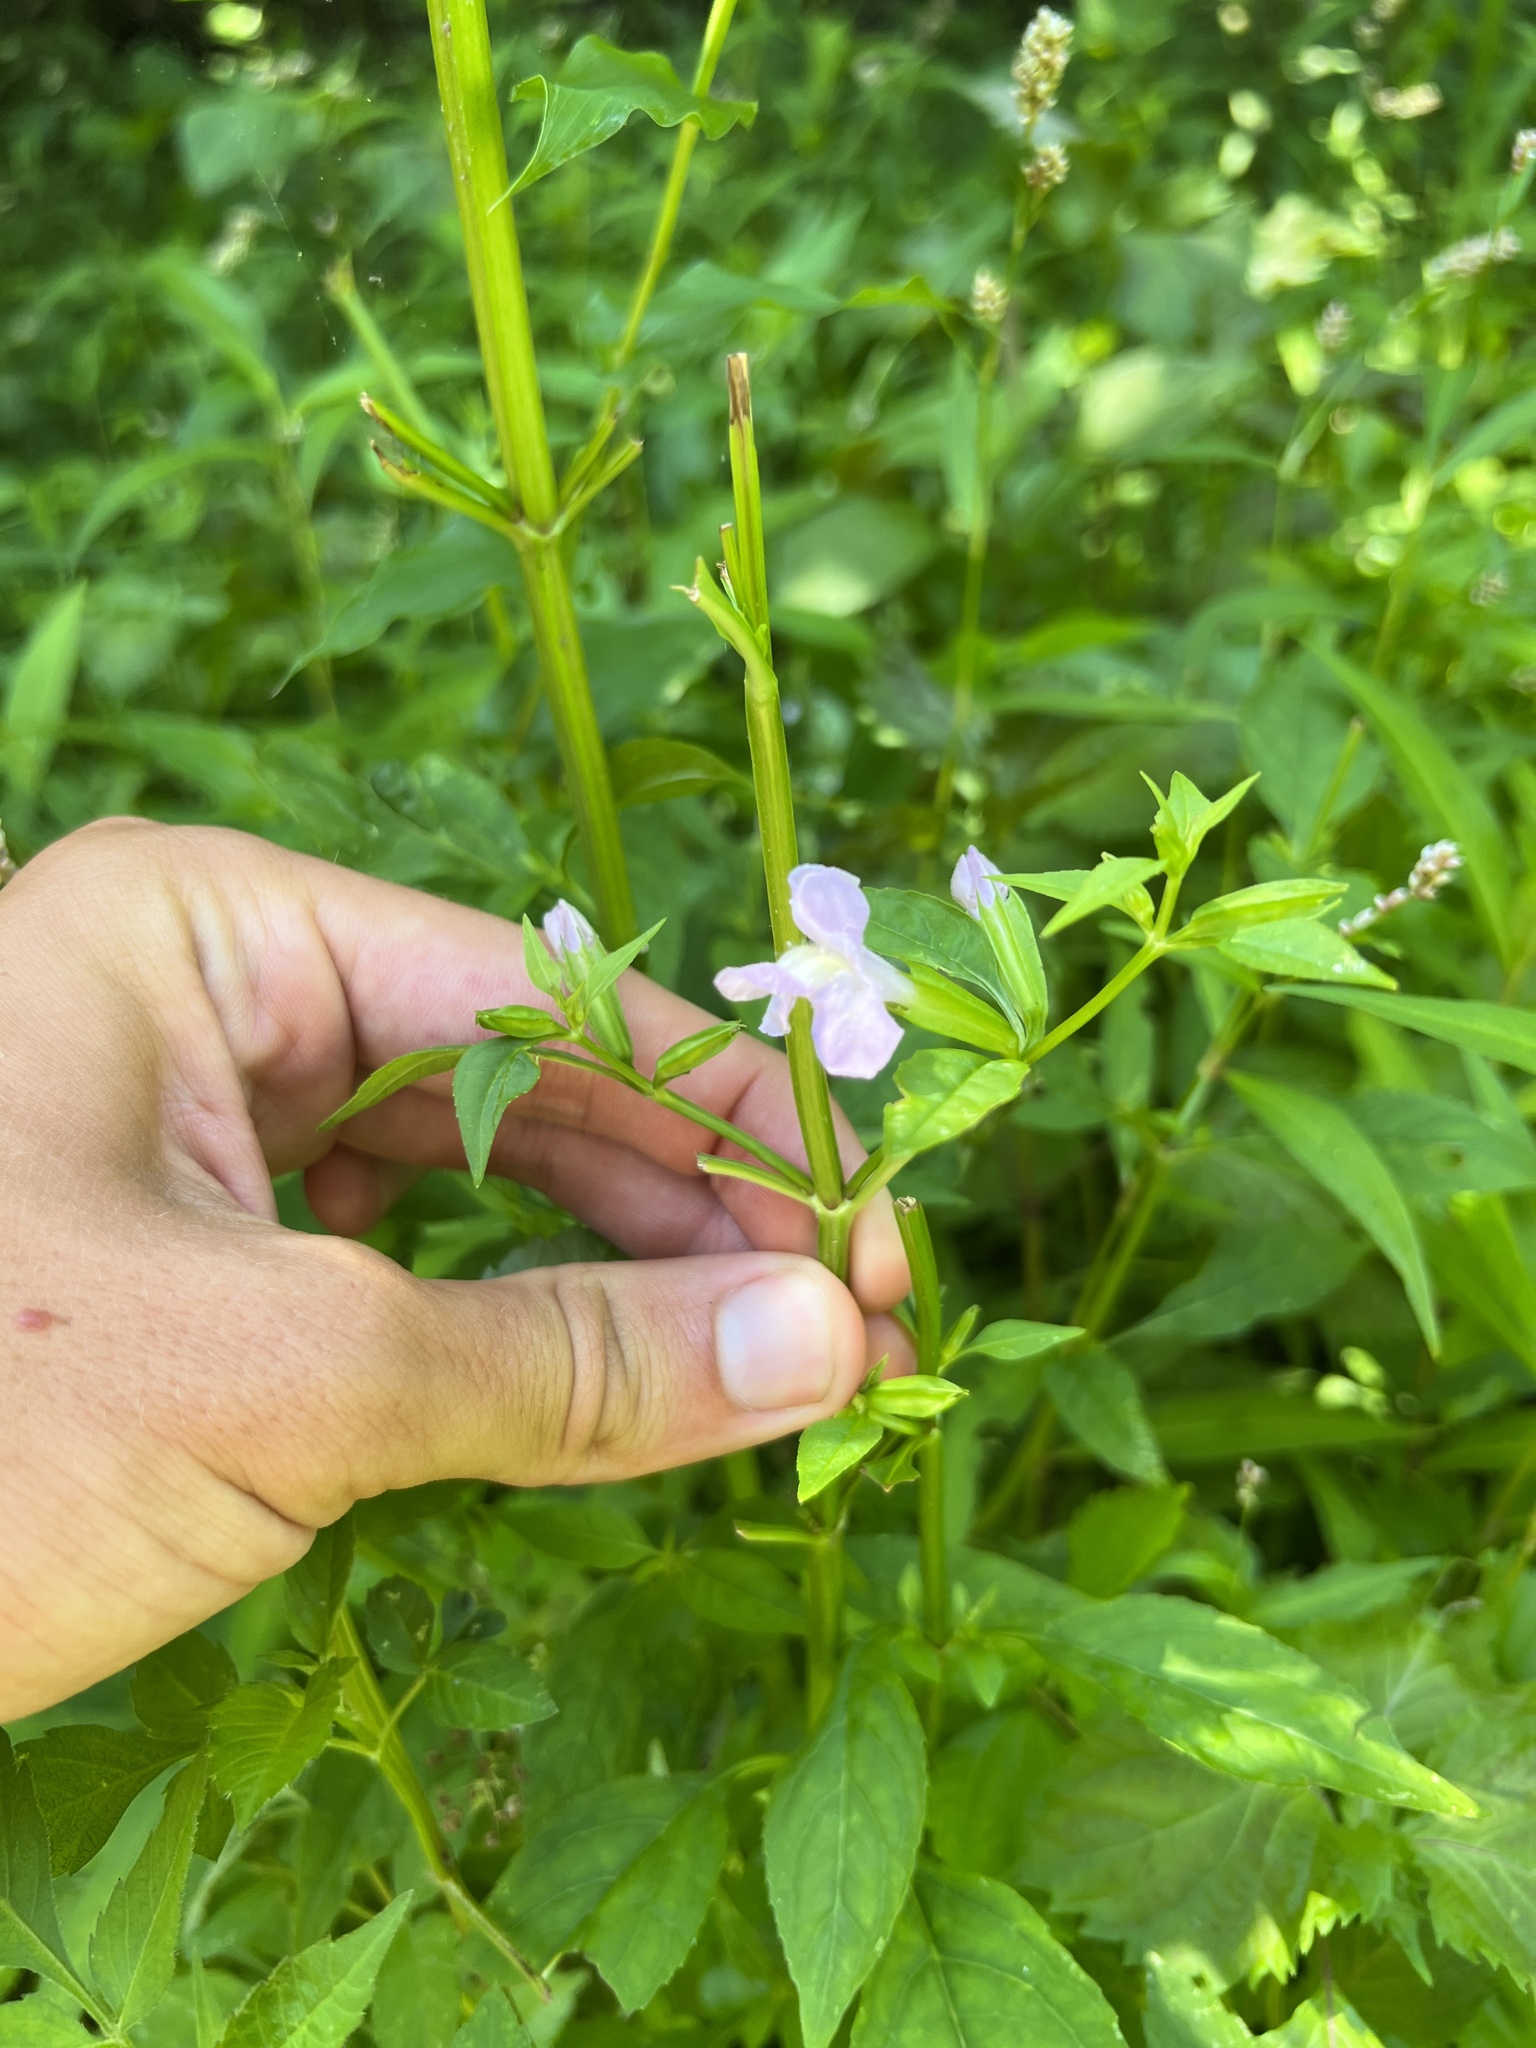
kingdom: Plantae
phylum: Tracheophyta
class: Magnoliopsida
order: Lamiales
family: Phrymaceae
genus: Mimulus
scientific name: Mimulus alatus
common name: Sharp-wing monkey-flower
